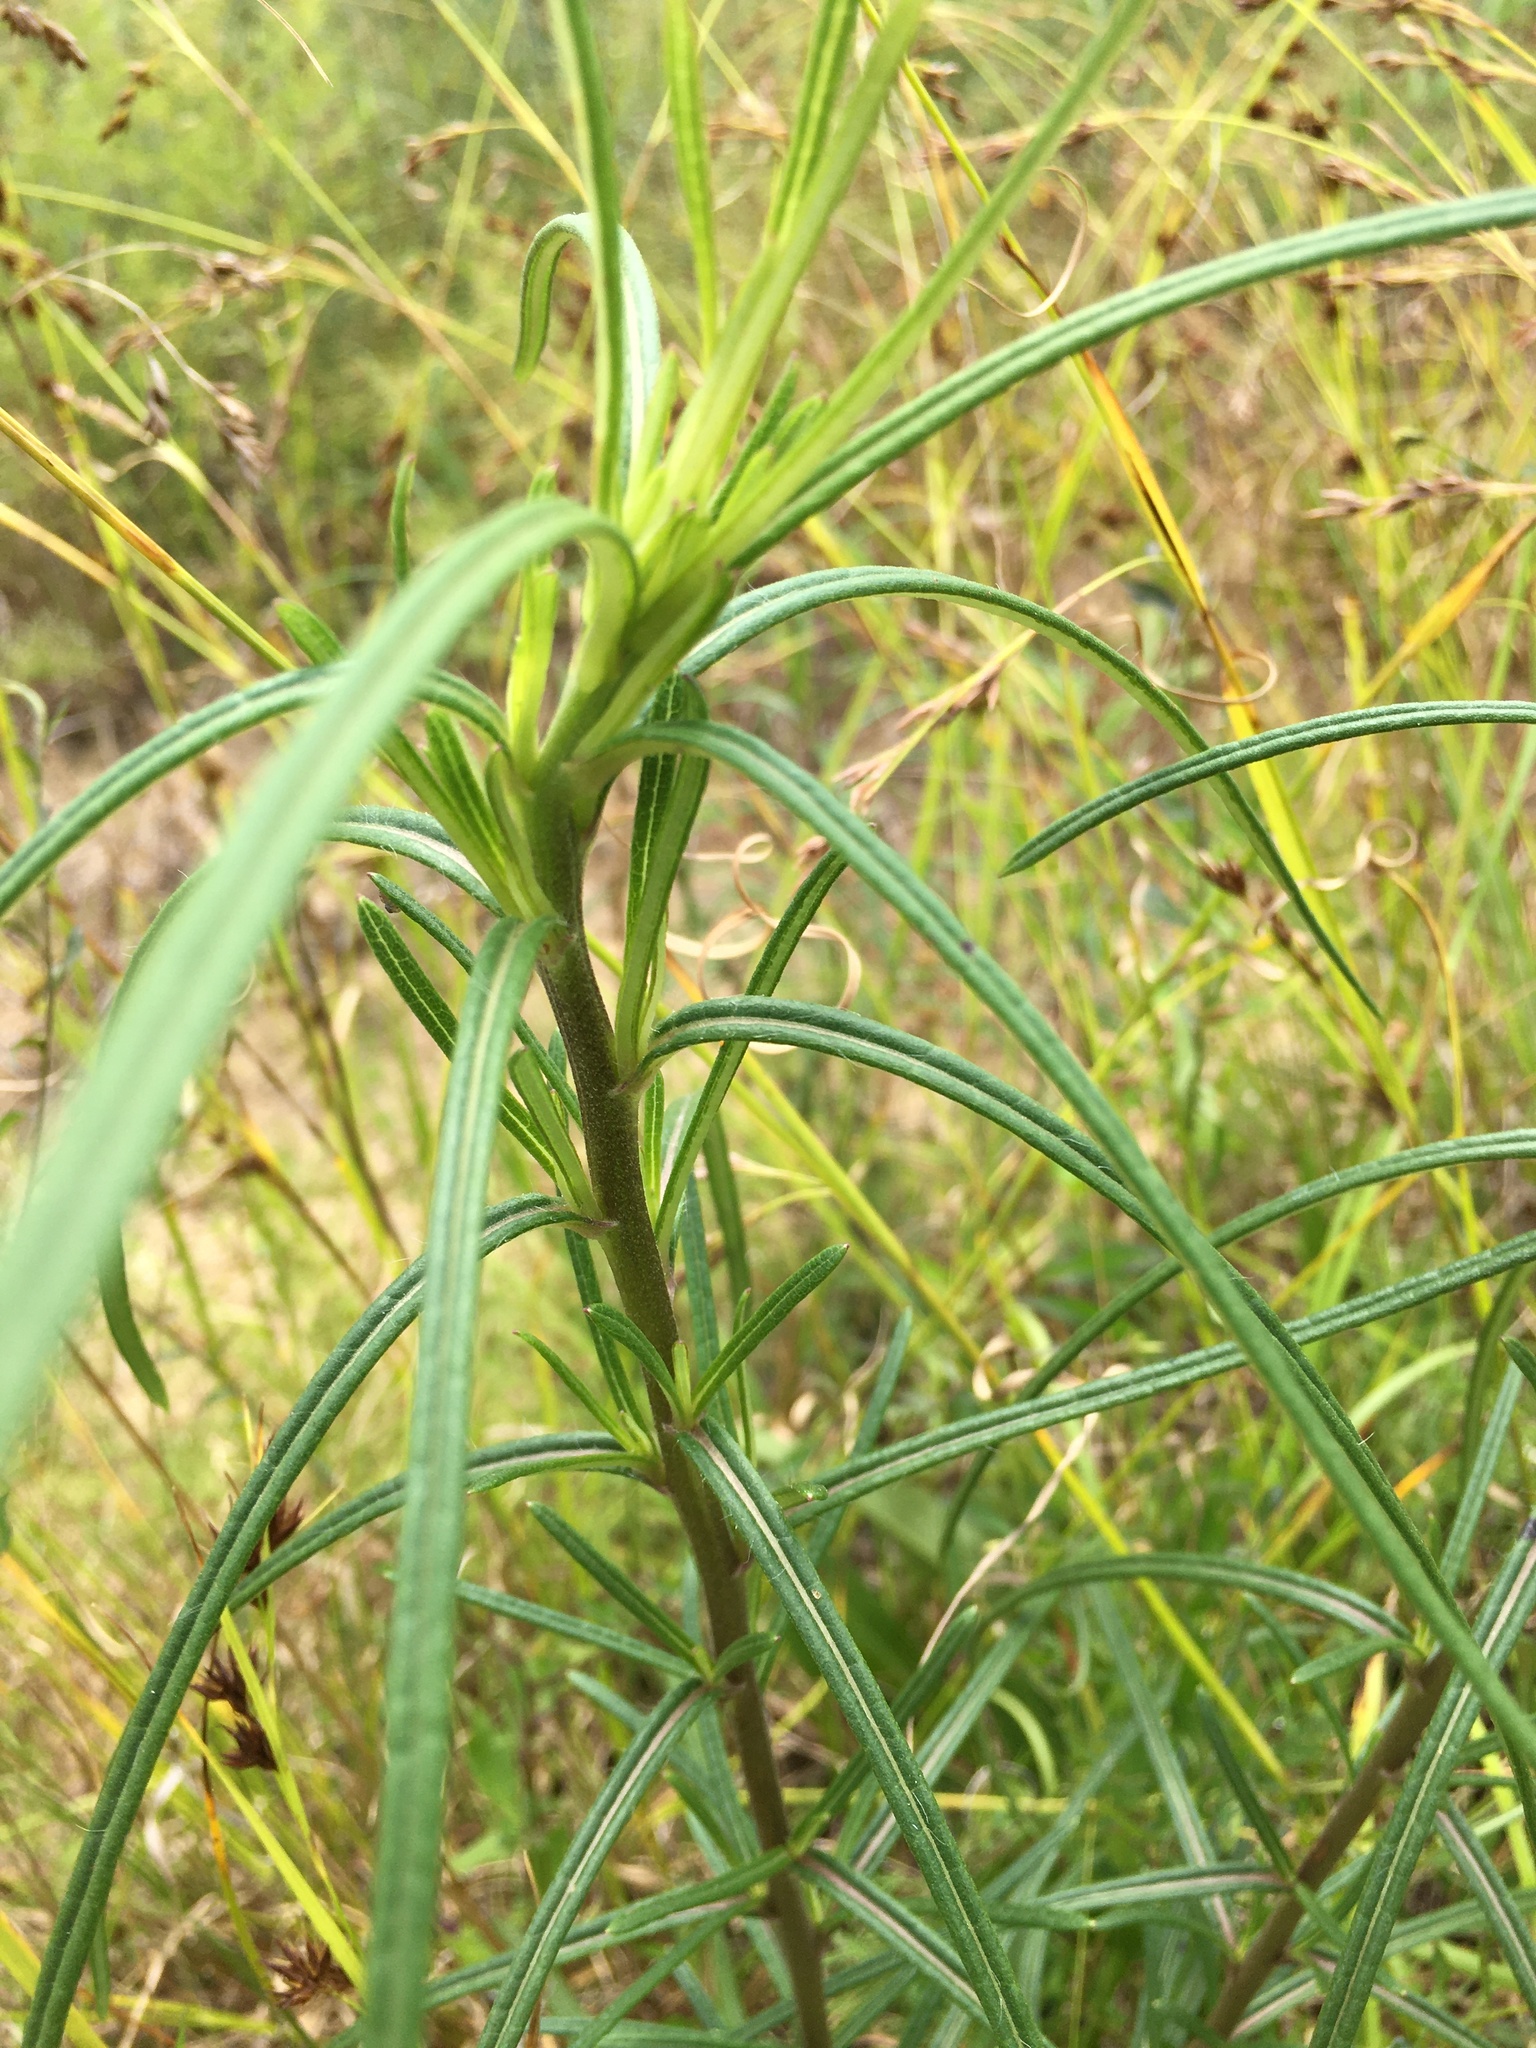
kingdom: Plantae
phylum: Tracheophyta
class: Magnoliopsida
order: Asterales
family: Asteraceae
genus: Helianthus
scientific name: Helianthus angustifolius
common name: Swamp sunflower
